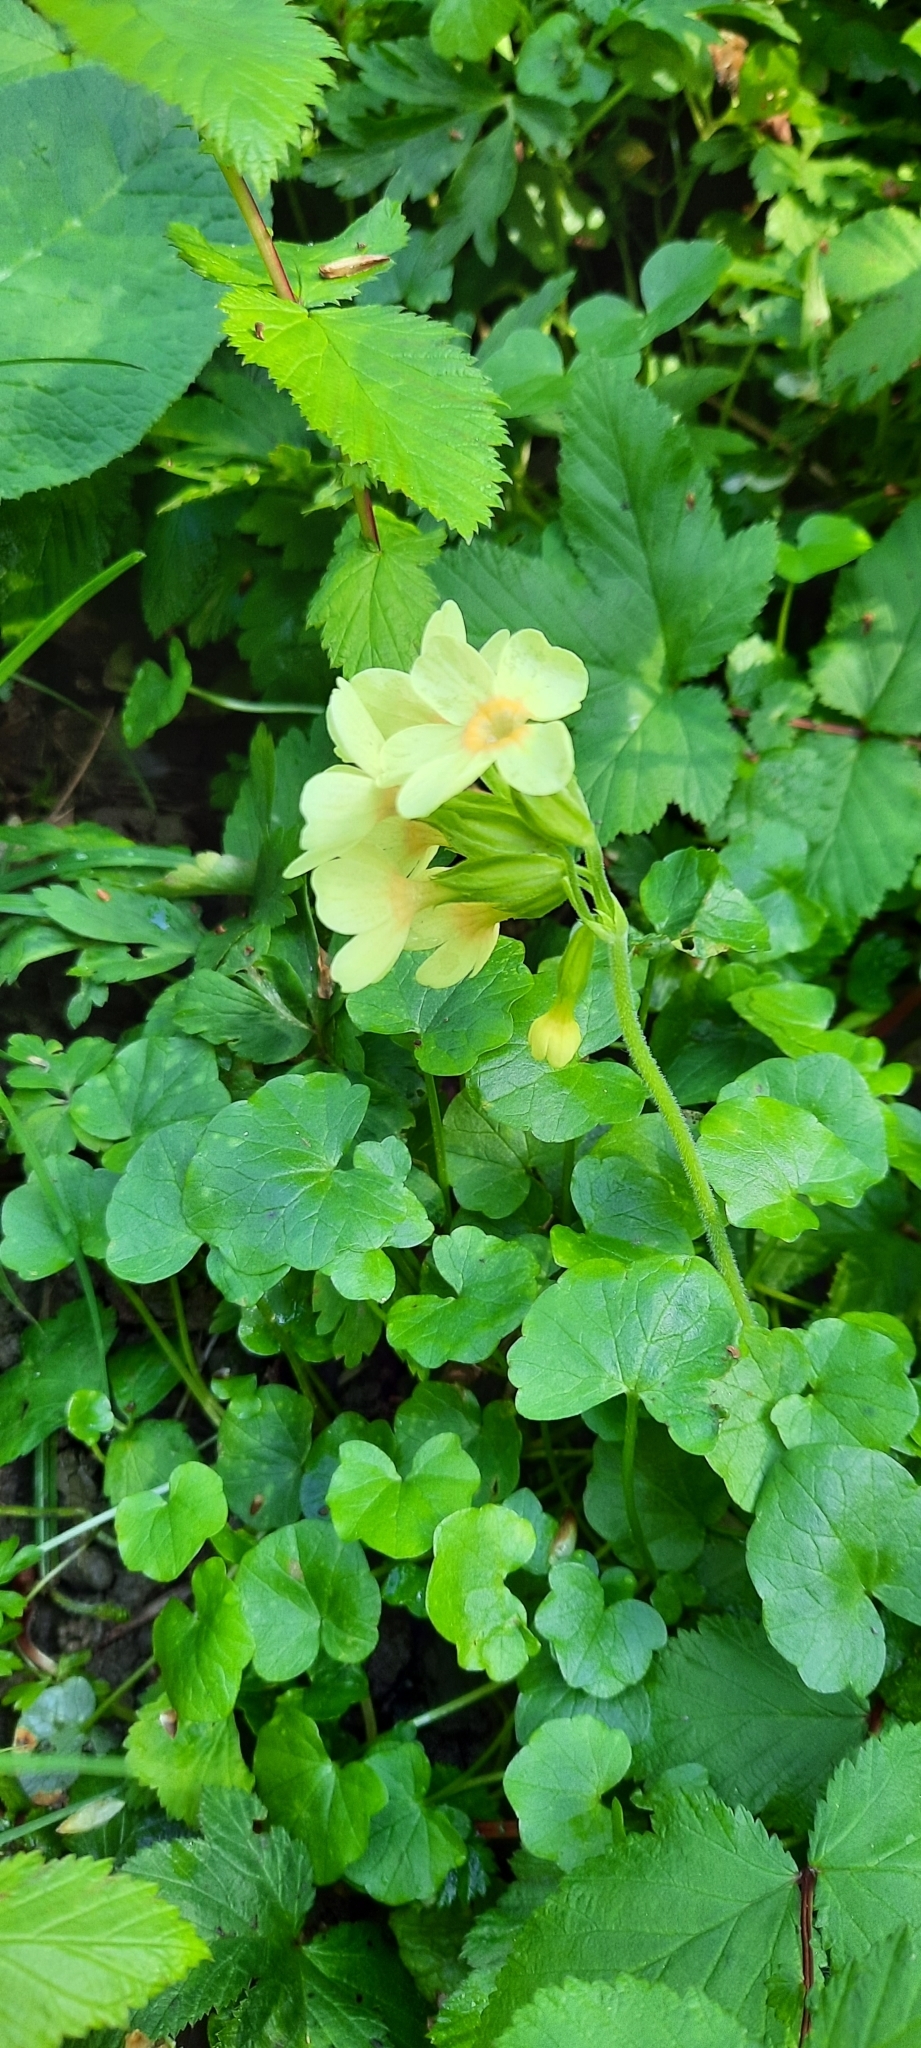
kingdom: Plantae
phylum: Tracheophyta
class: Magnoliopsida
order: Ericales
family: Primulaceae
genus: Primula
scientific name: Primula elatior
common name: Oxlip
